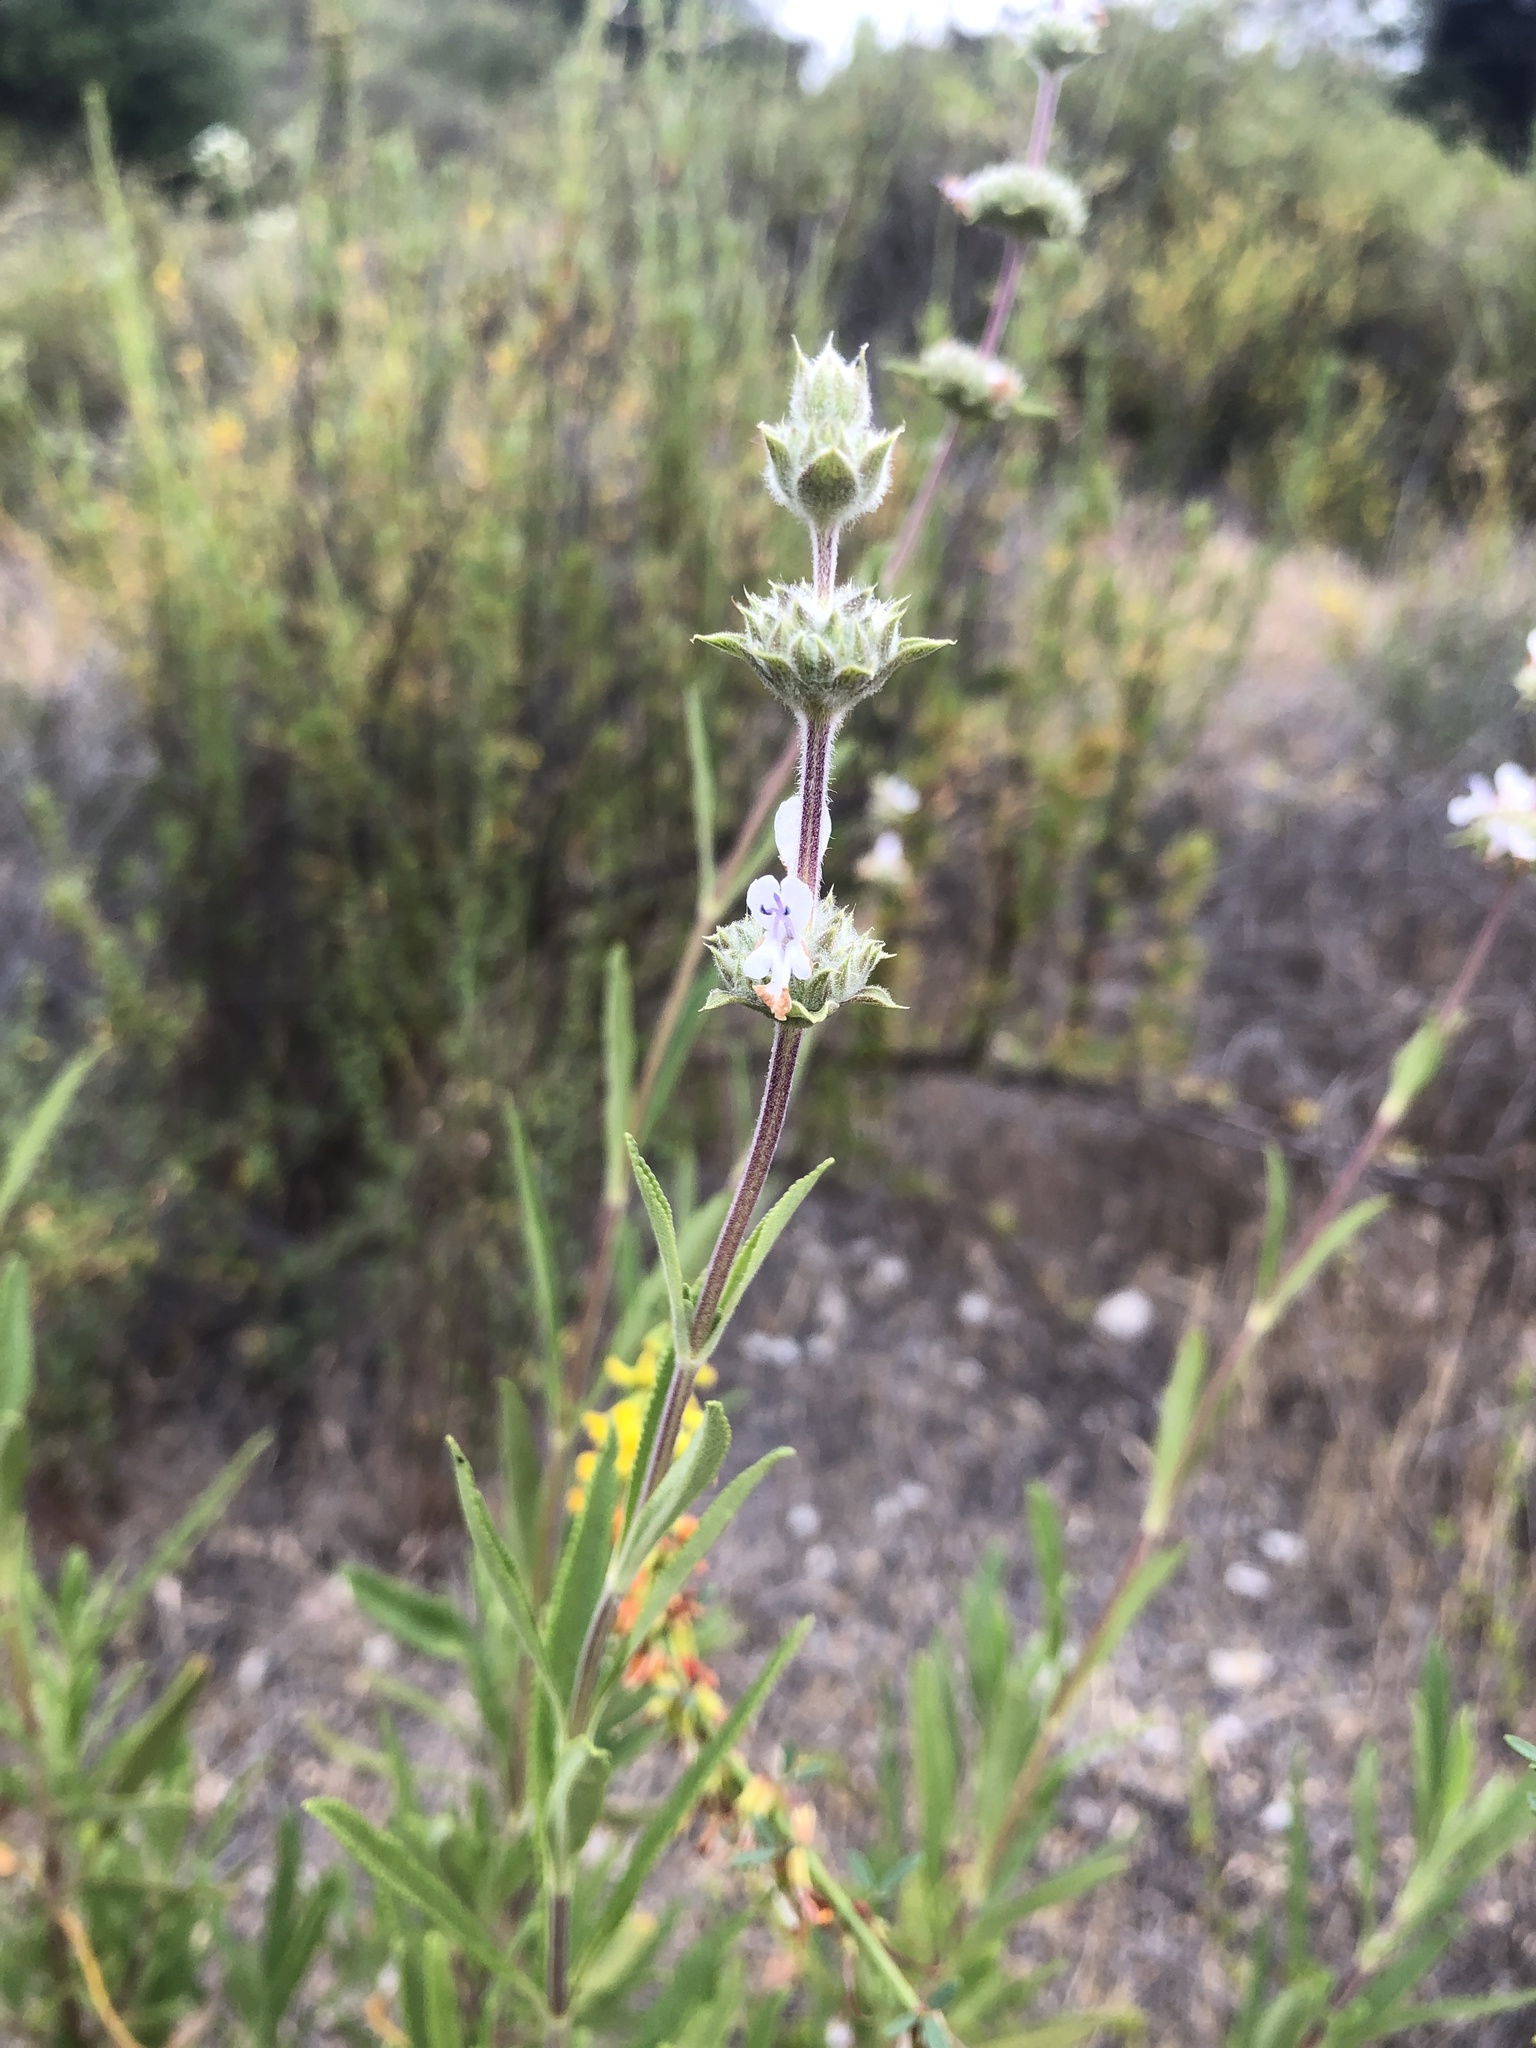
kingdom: Plantae
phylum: Tracheophyta
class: Magnoliopsida
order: Lamiales
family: Lamiaceae
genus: Salvia
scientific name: Salvia mellifera
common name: Black sage
